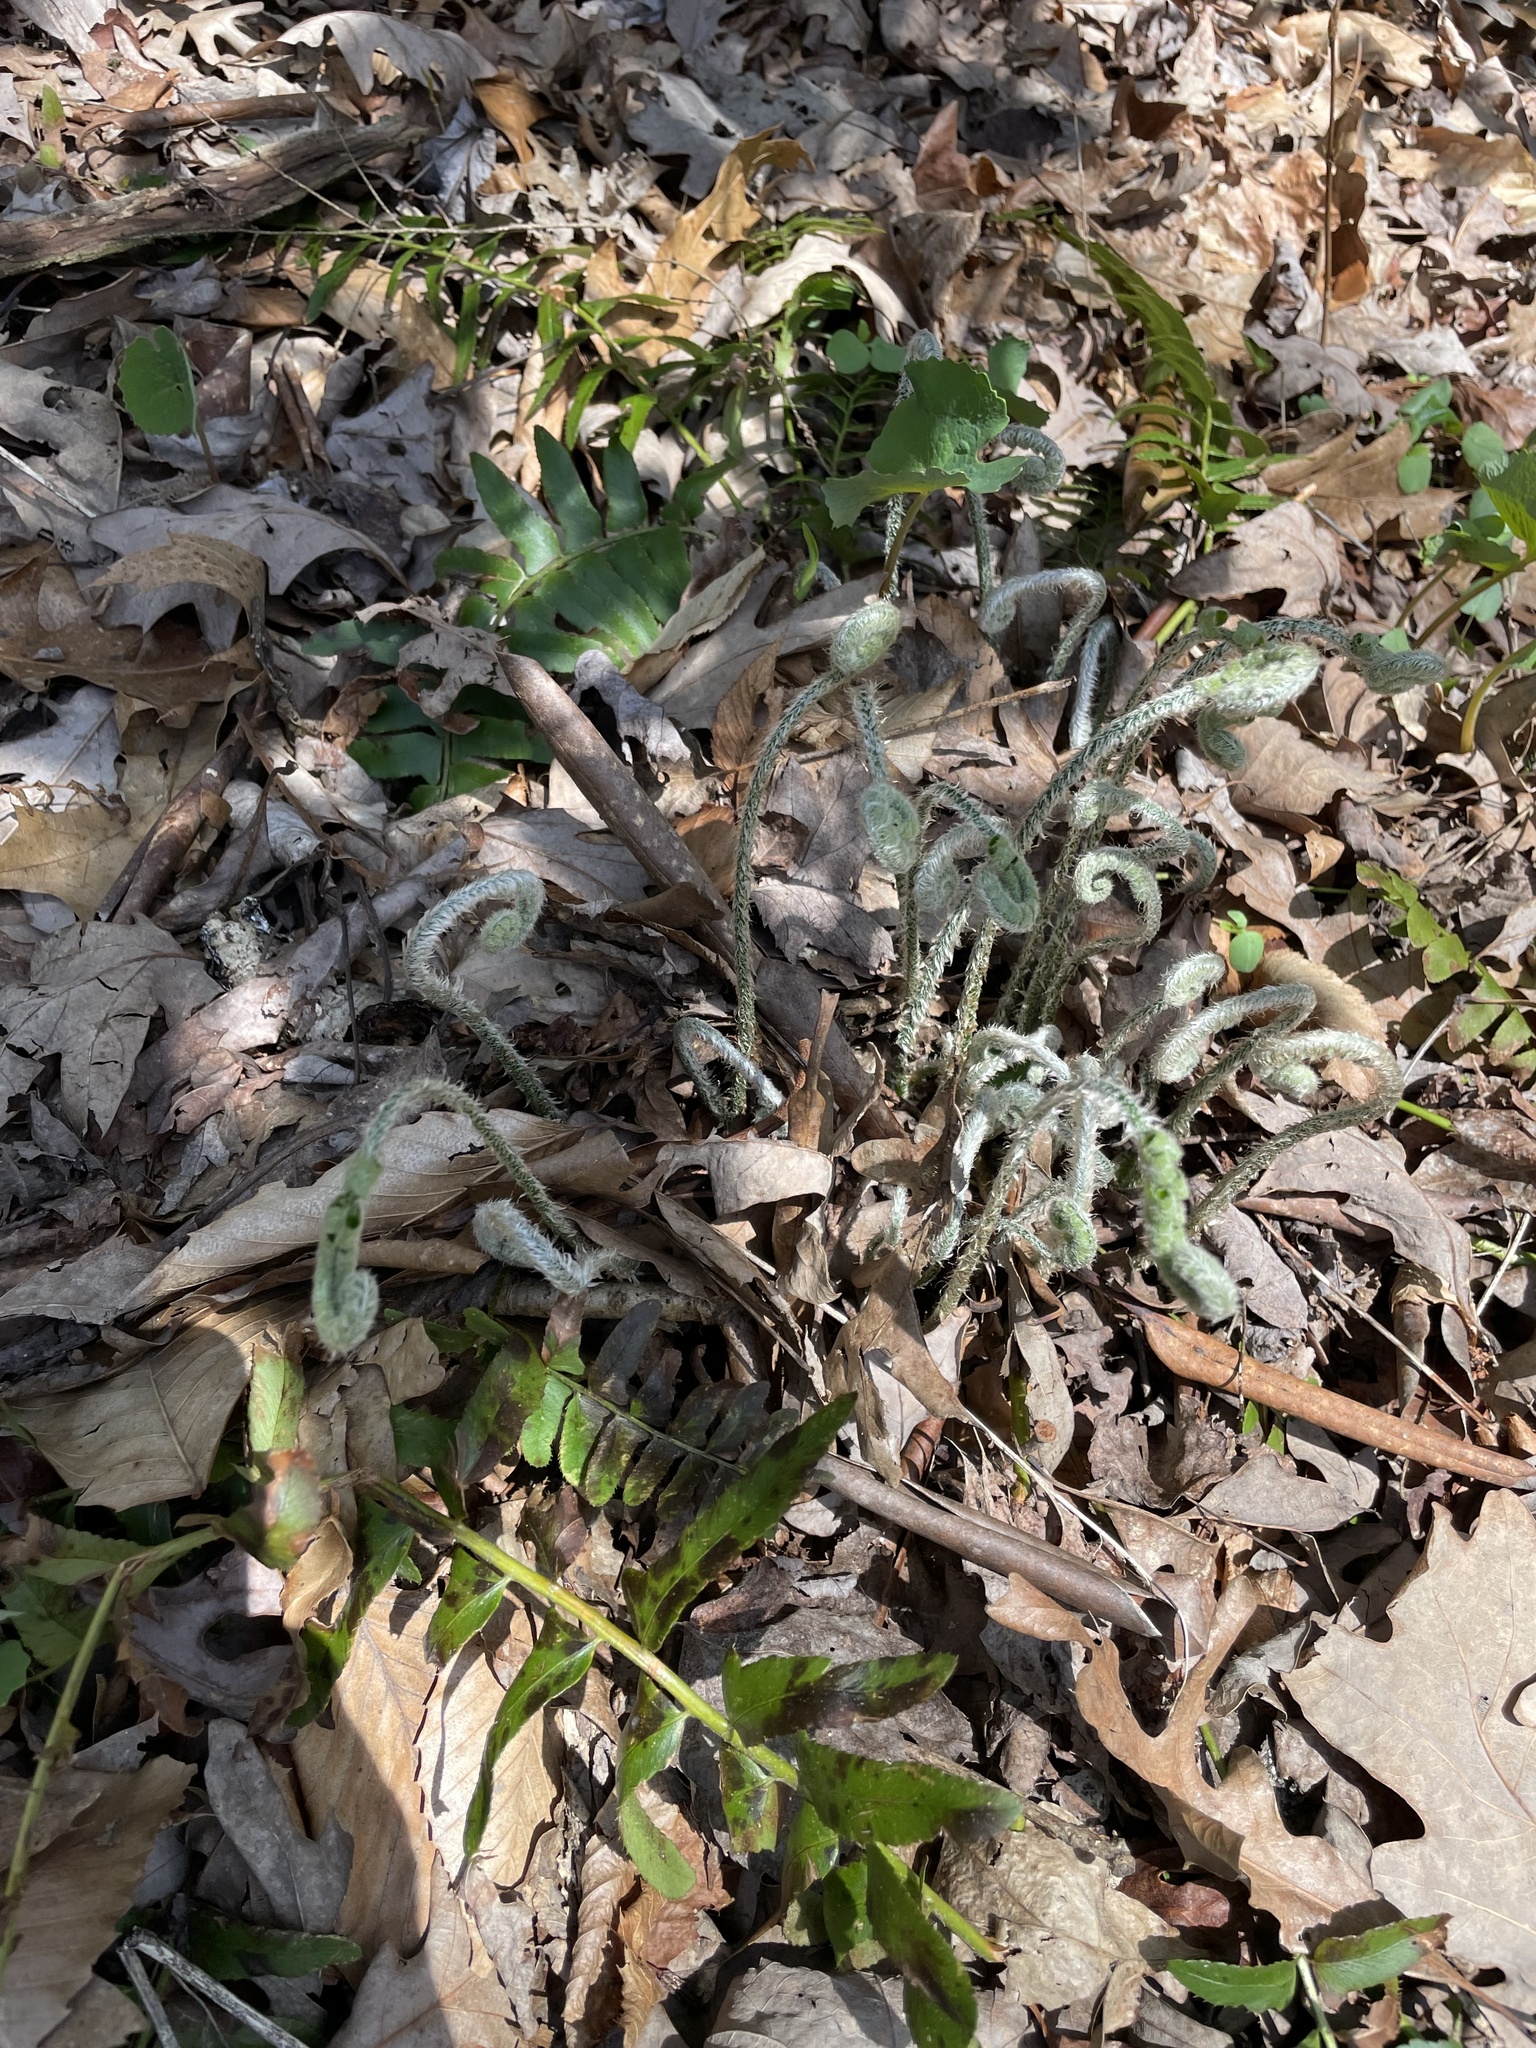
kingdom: Plantae
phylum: Tracheophyta
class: Polypodiopsida
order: Polypodiales
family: Dryopteridaceae
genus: Polystichum
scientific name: Polystichum acrostichoides
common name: Christmas fern
